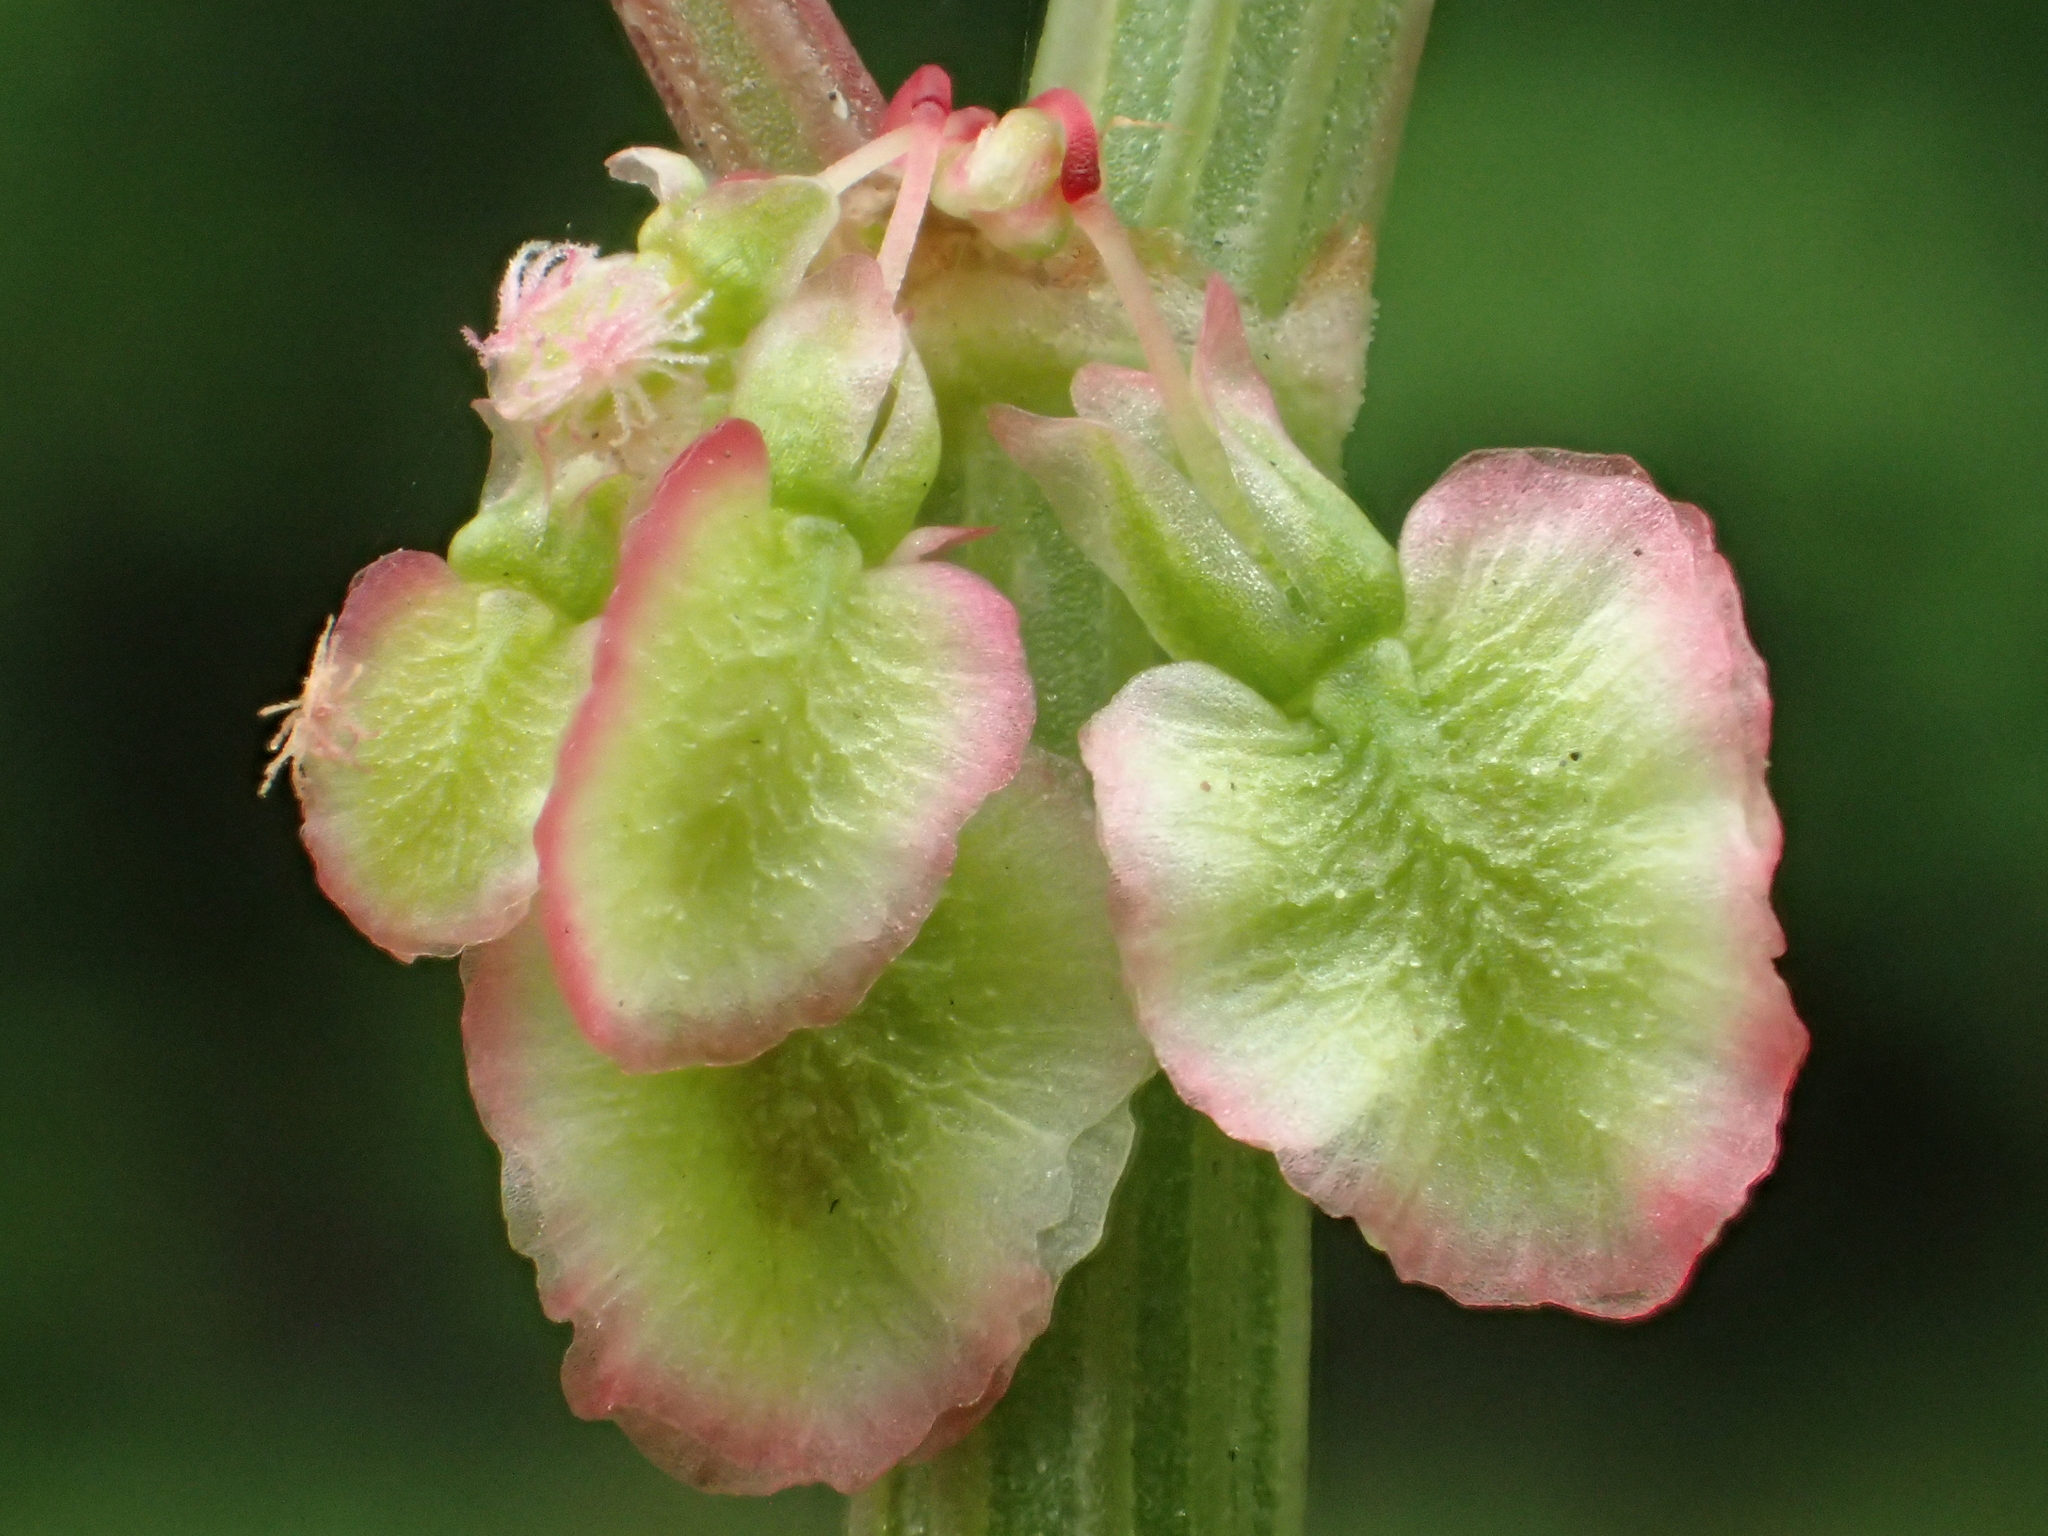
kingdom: Plantae
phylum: Tracheophyta
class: Magnoliopsida
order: Caryophyllales
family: Polygonaceae
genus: Rumex
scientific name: Rumex acetosa
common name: Garden sorrel
